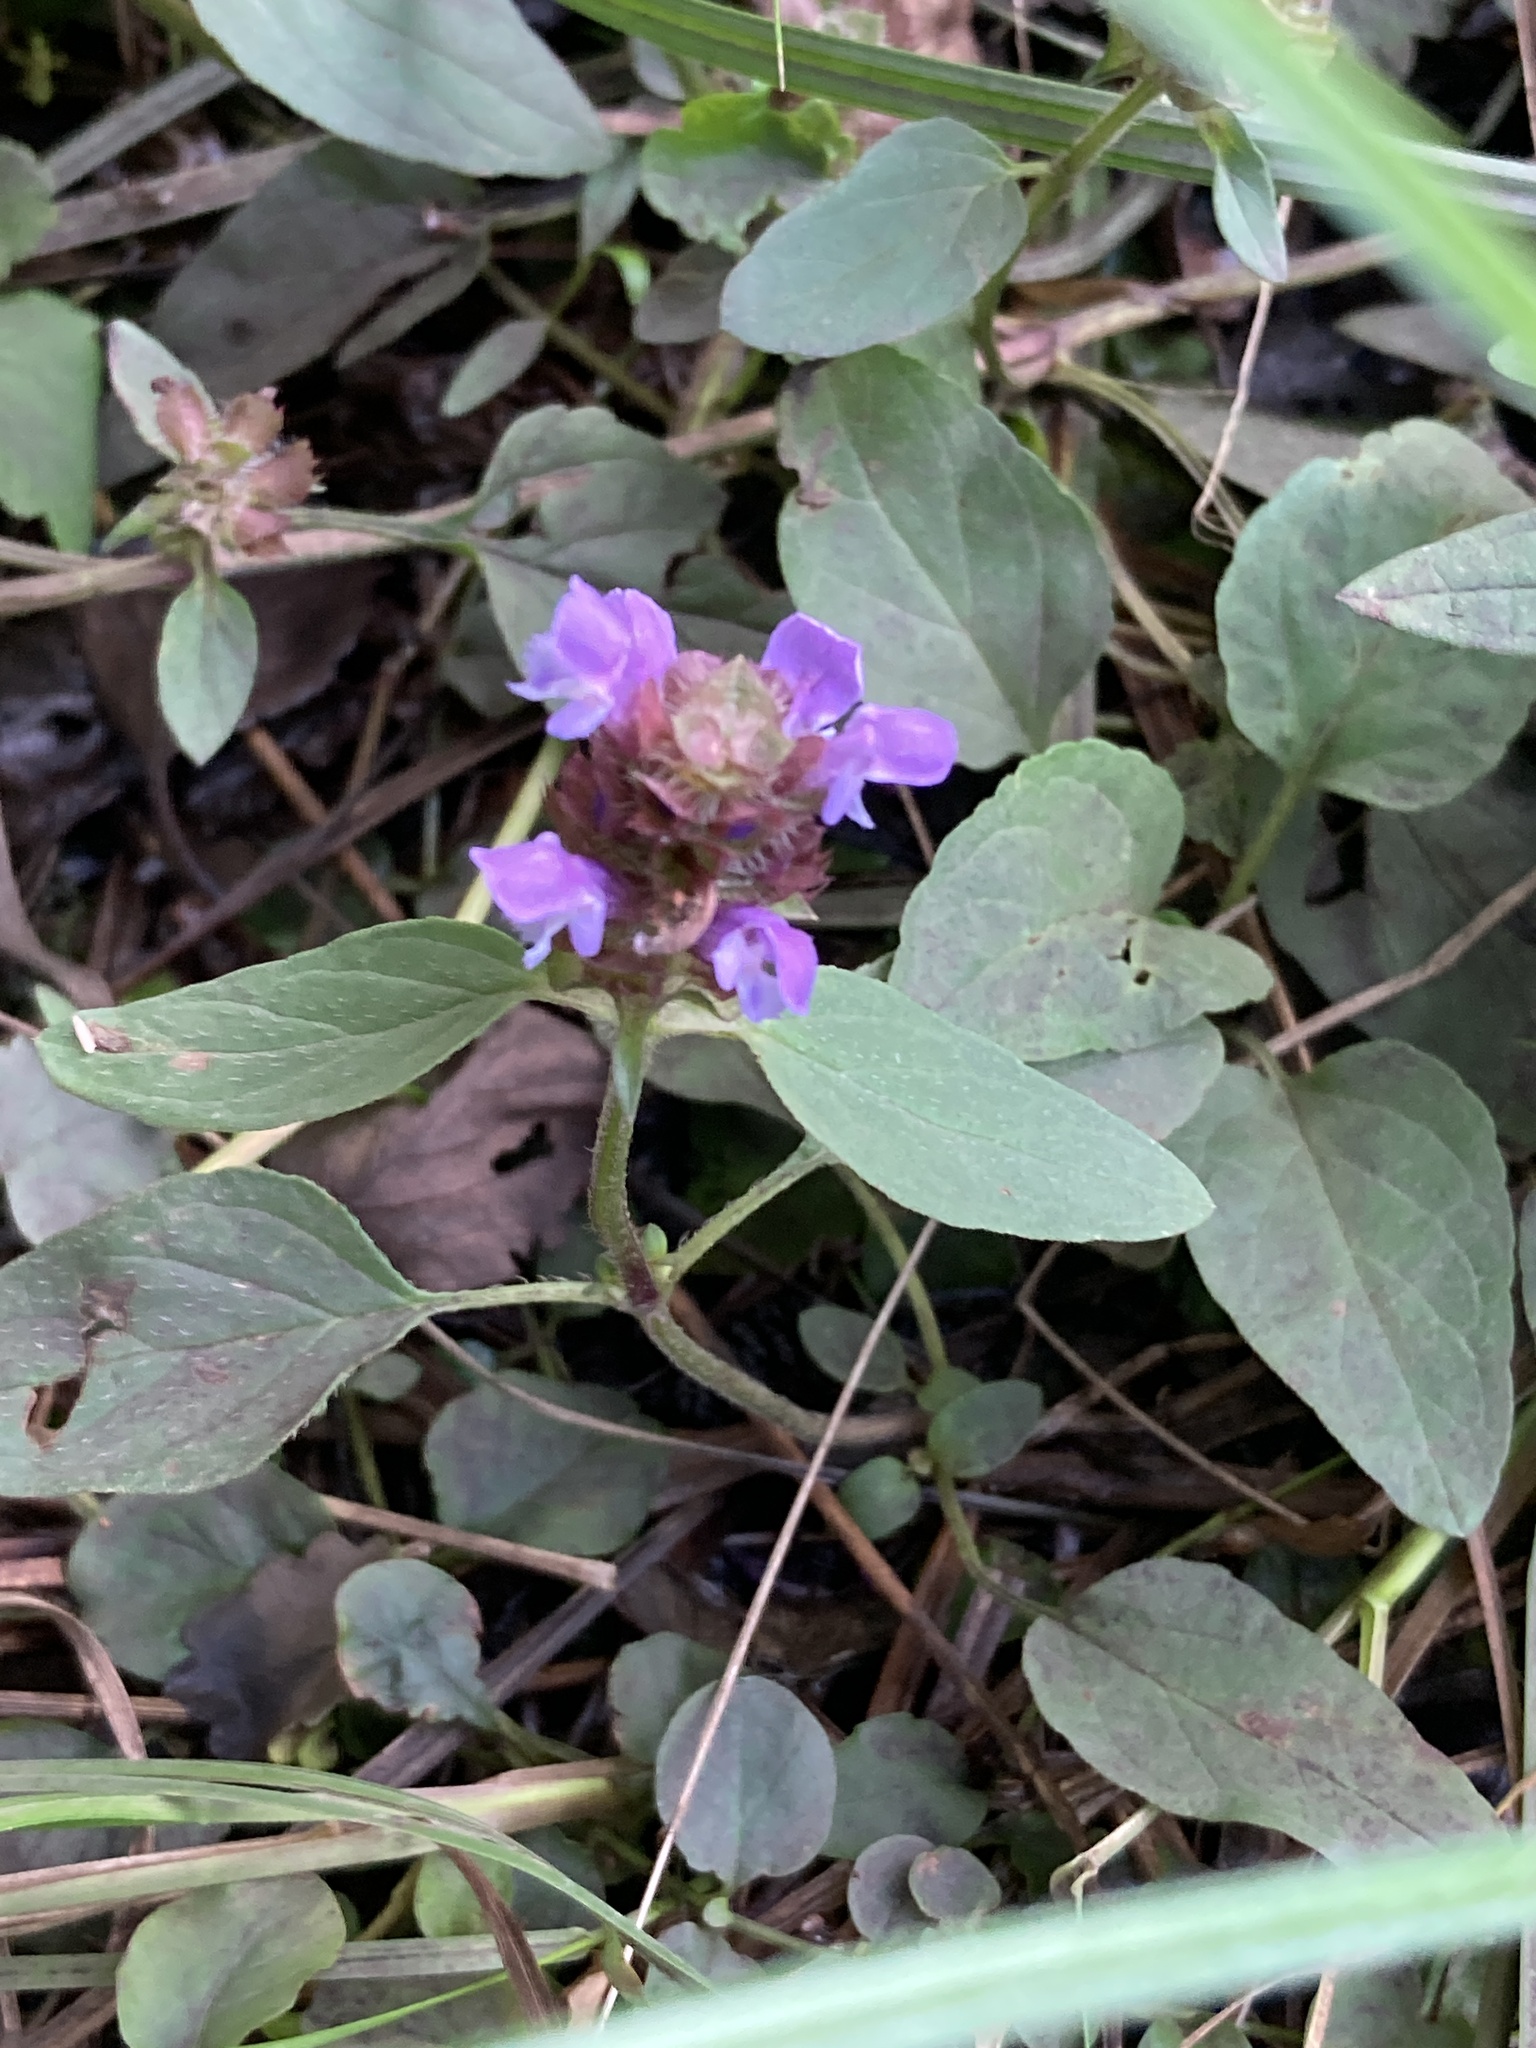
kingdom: Plantae
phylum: Tracheophyta
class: Magnoliopsida
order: Lamiales
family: Lamiaceae
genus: Prunella
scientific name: Prunella vulgaris
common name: Heal-all
